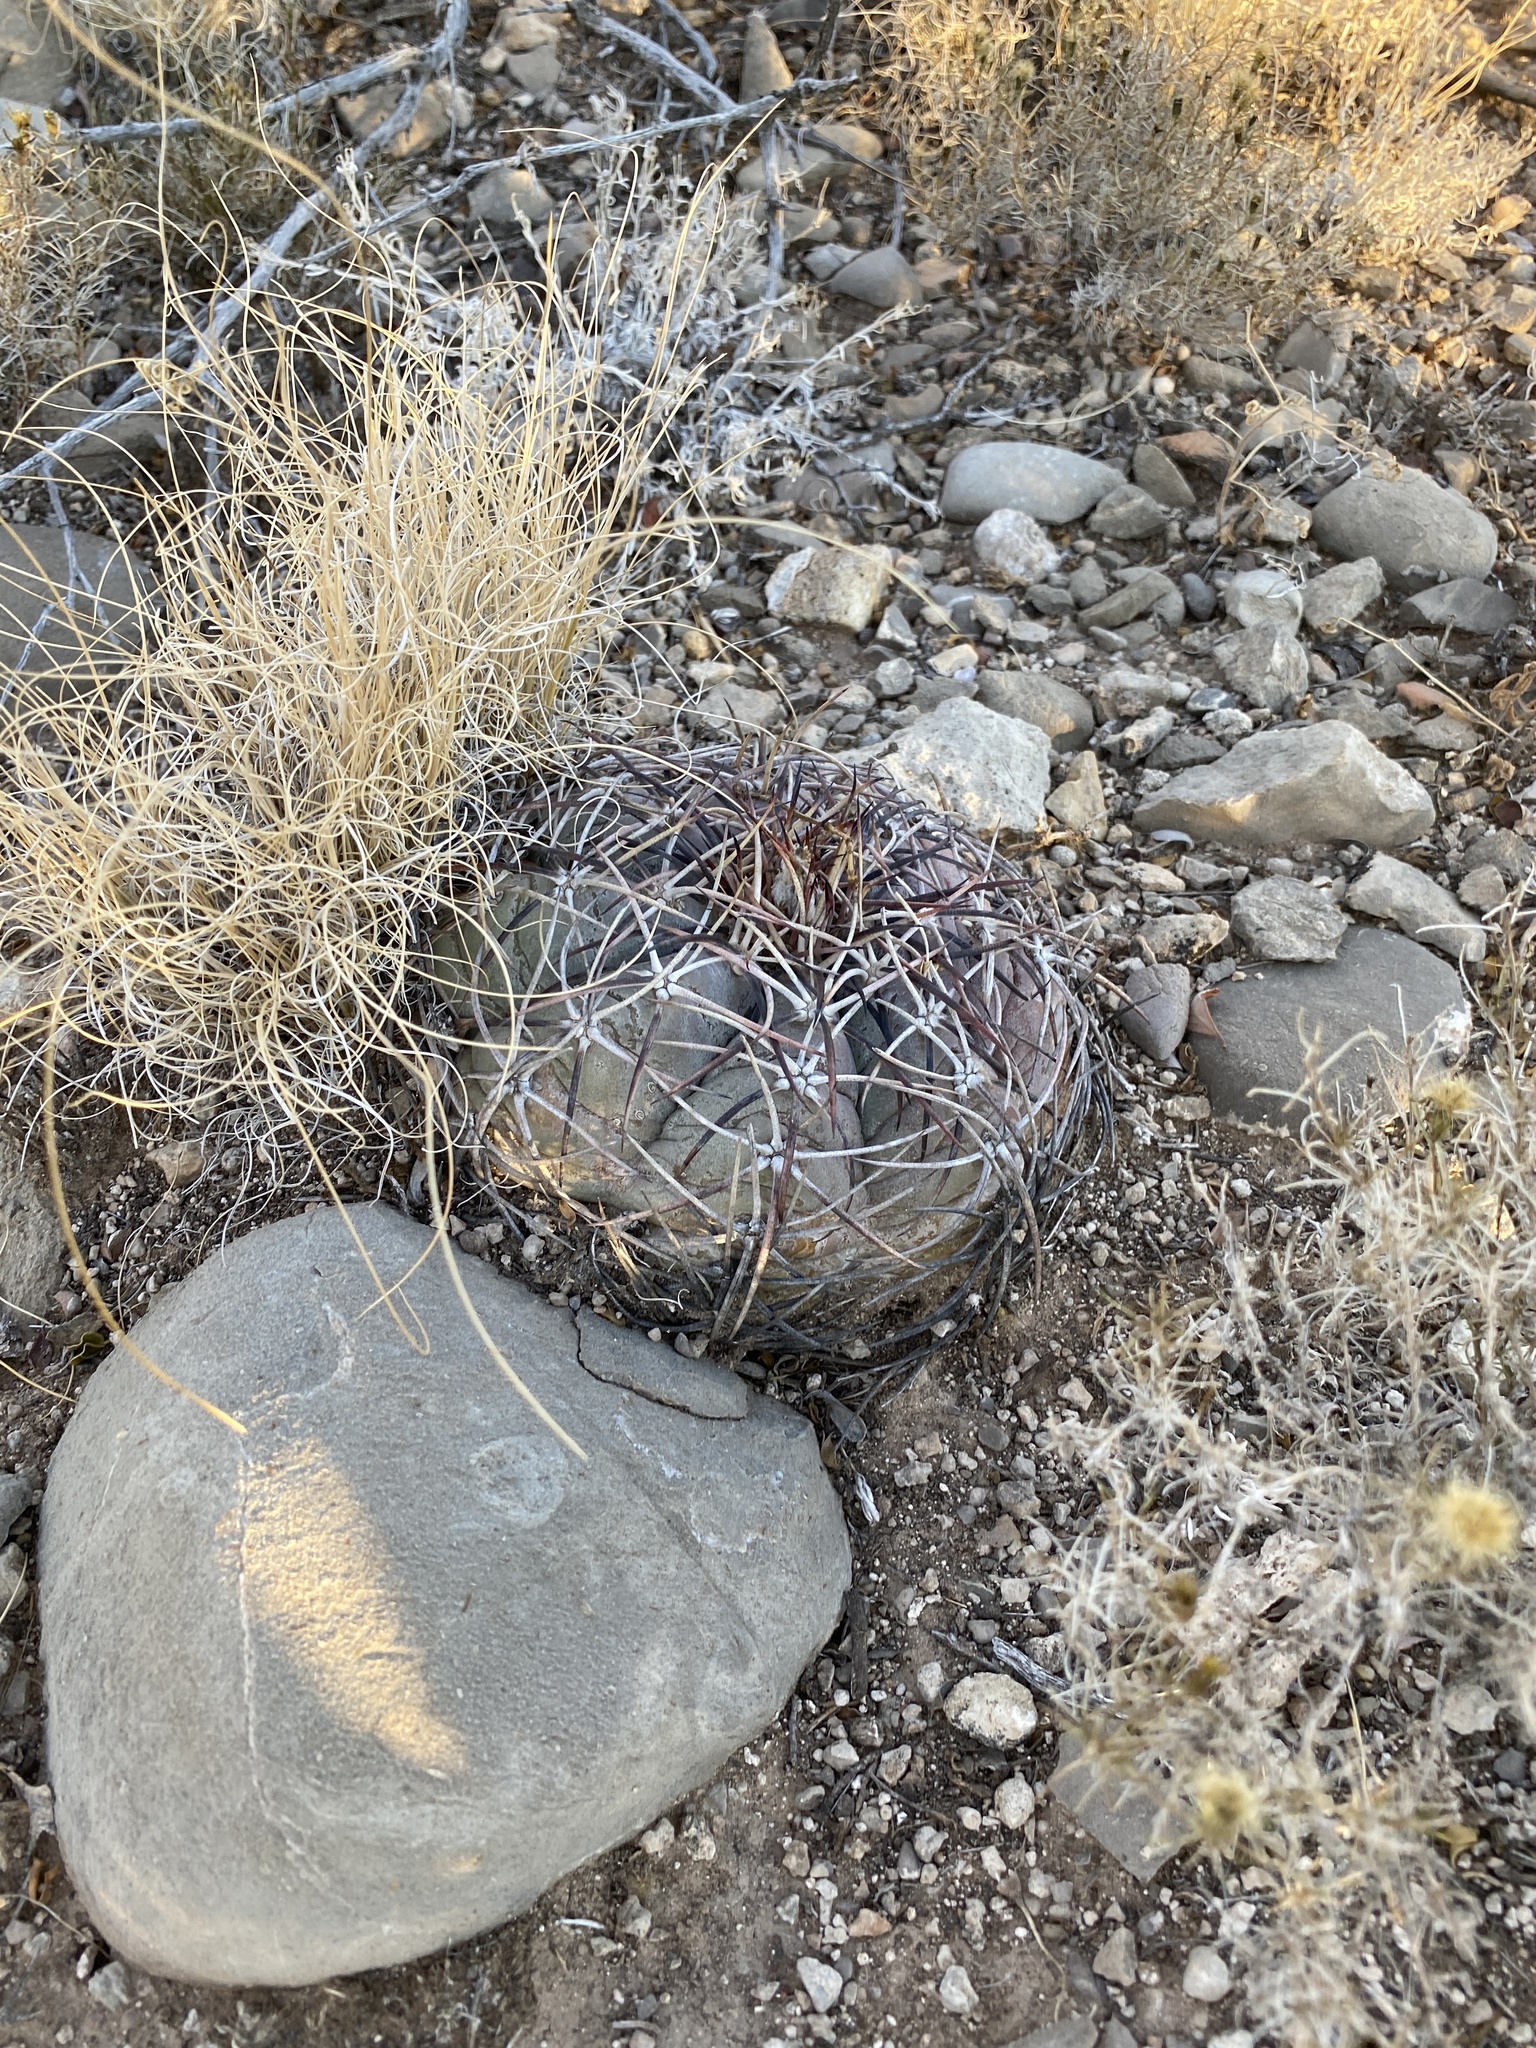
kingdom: Plantae
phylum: Tracheophyta
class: Magnoliopsida
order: Caryophyllales
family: Cactaceae
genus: Echinocactus
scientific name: Echinocactus horizonthalonius
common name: Devilshead
